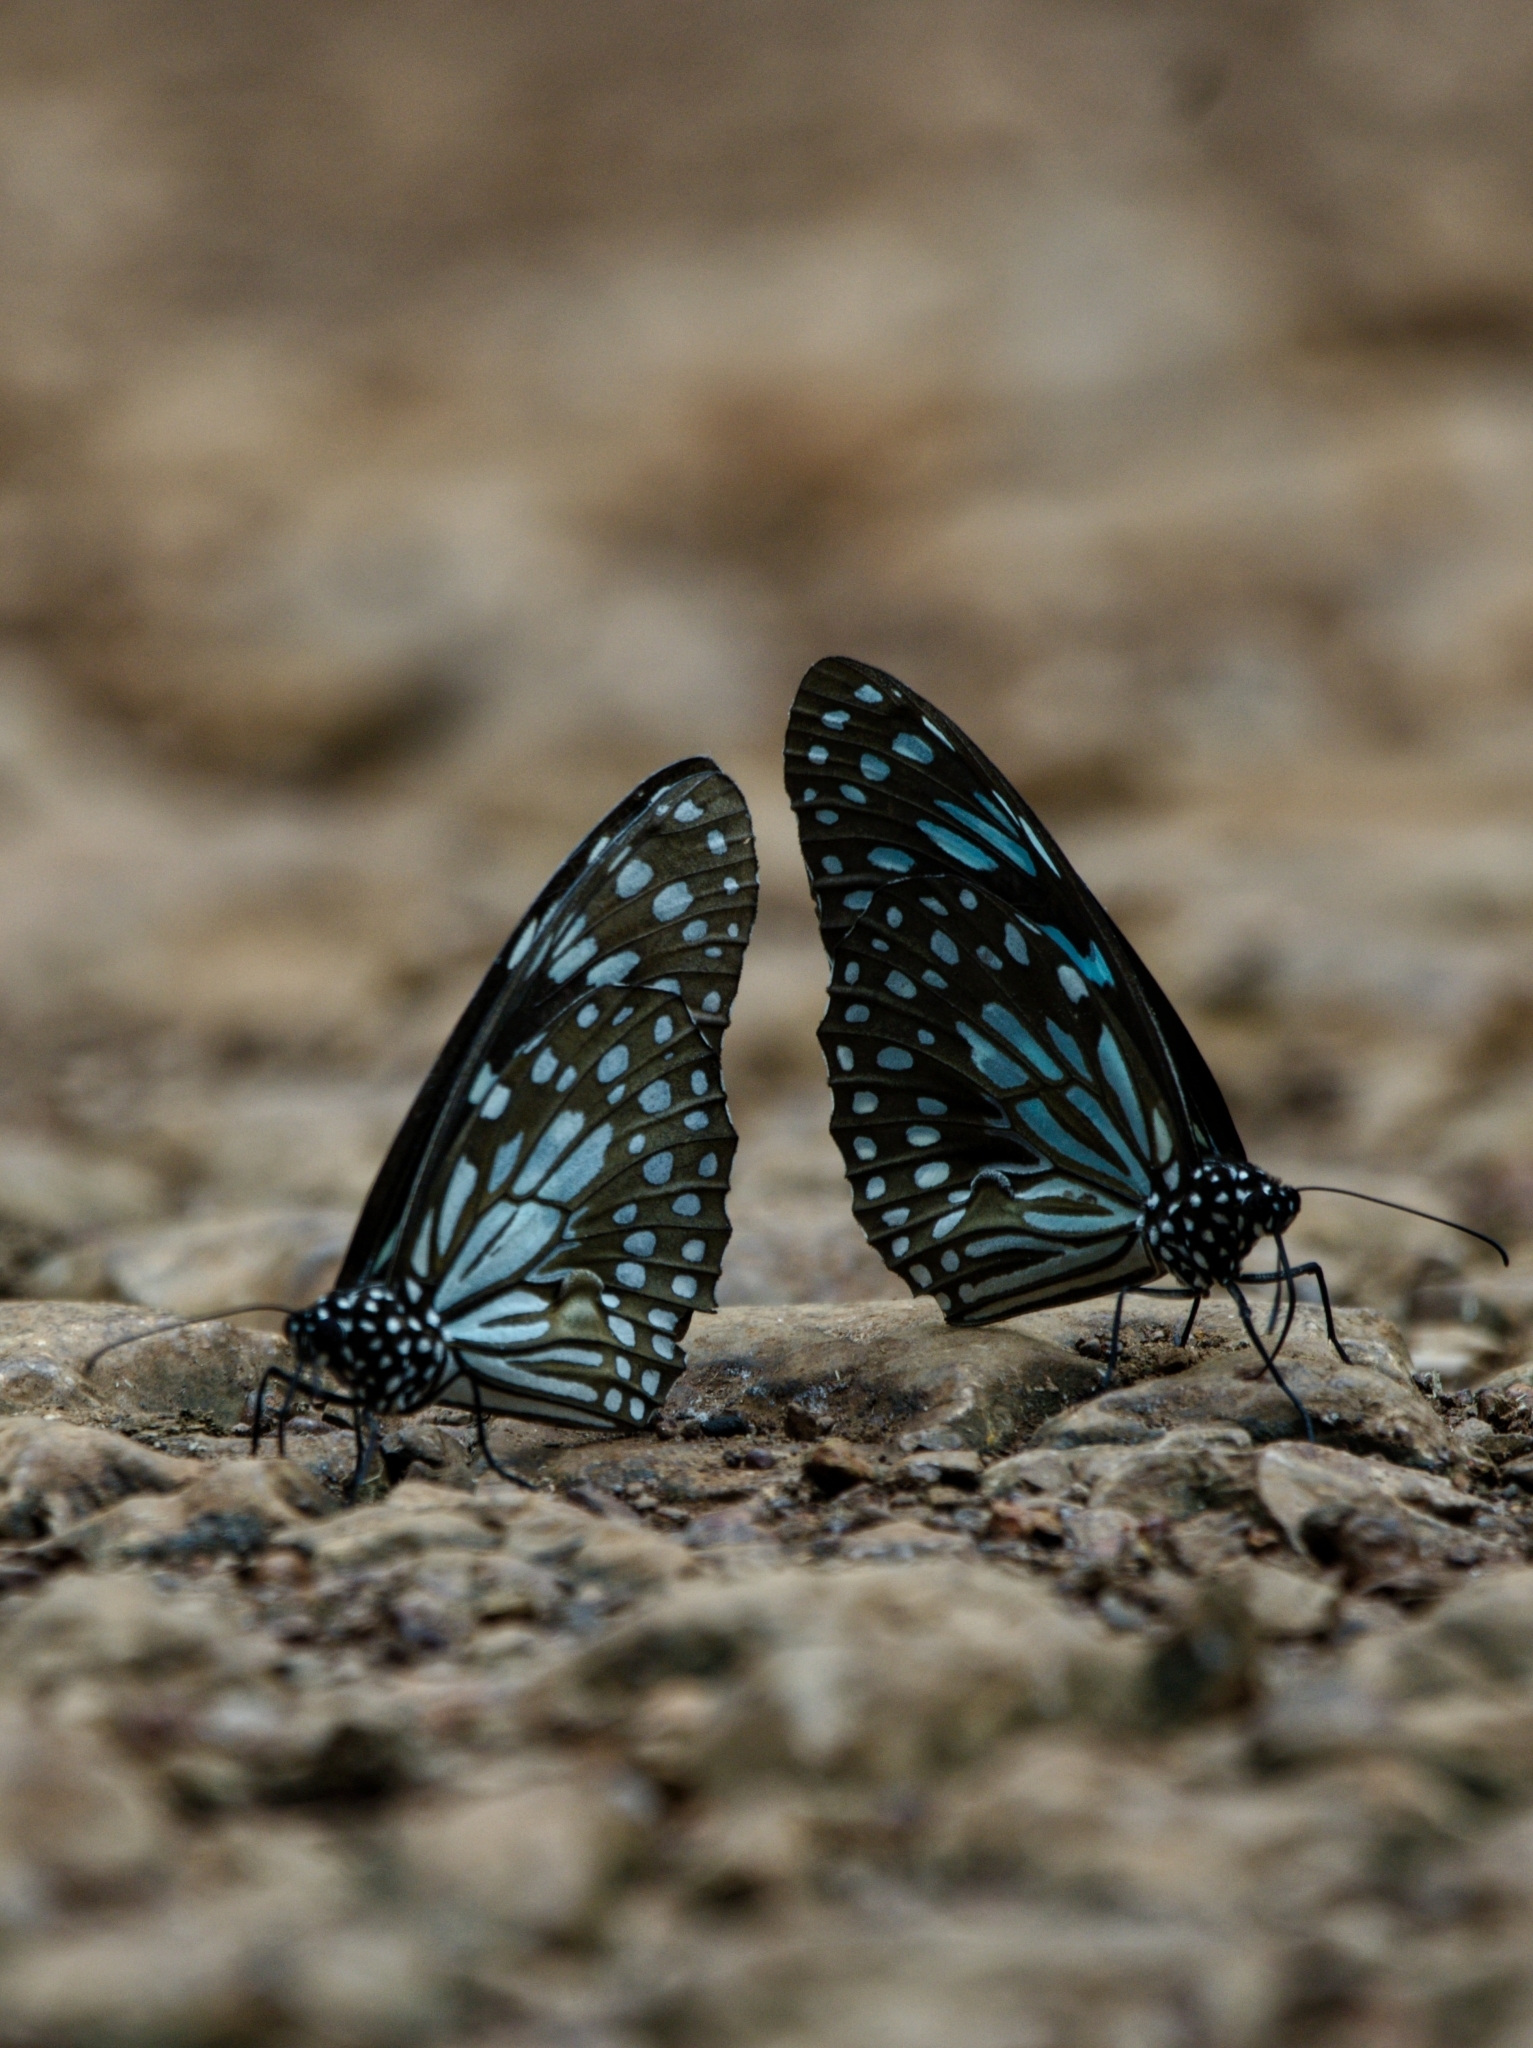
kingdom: Animalia
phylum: Arthropoda
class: Insecta
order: Lepidoptera
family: Nymphalidae
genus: Tirumala
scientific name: Tirumala limniace
